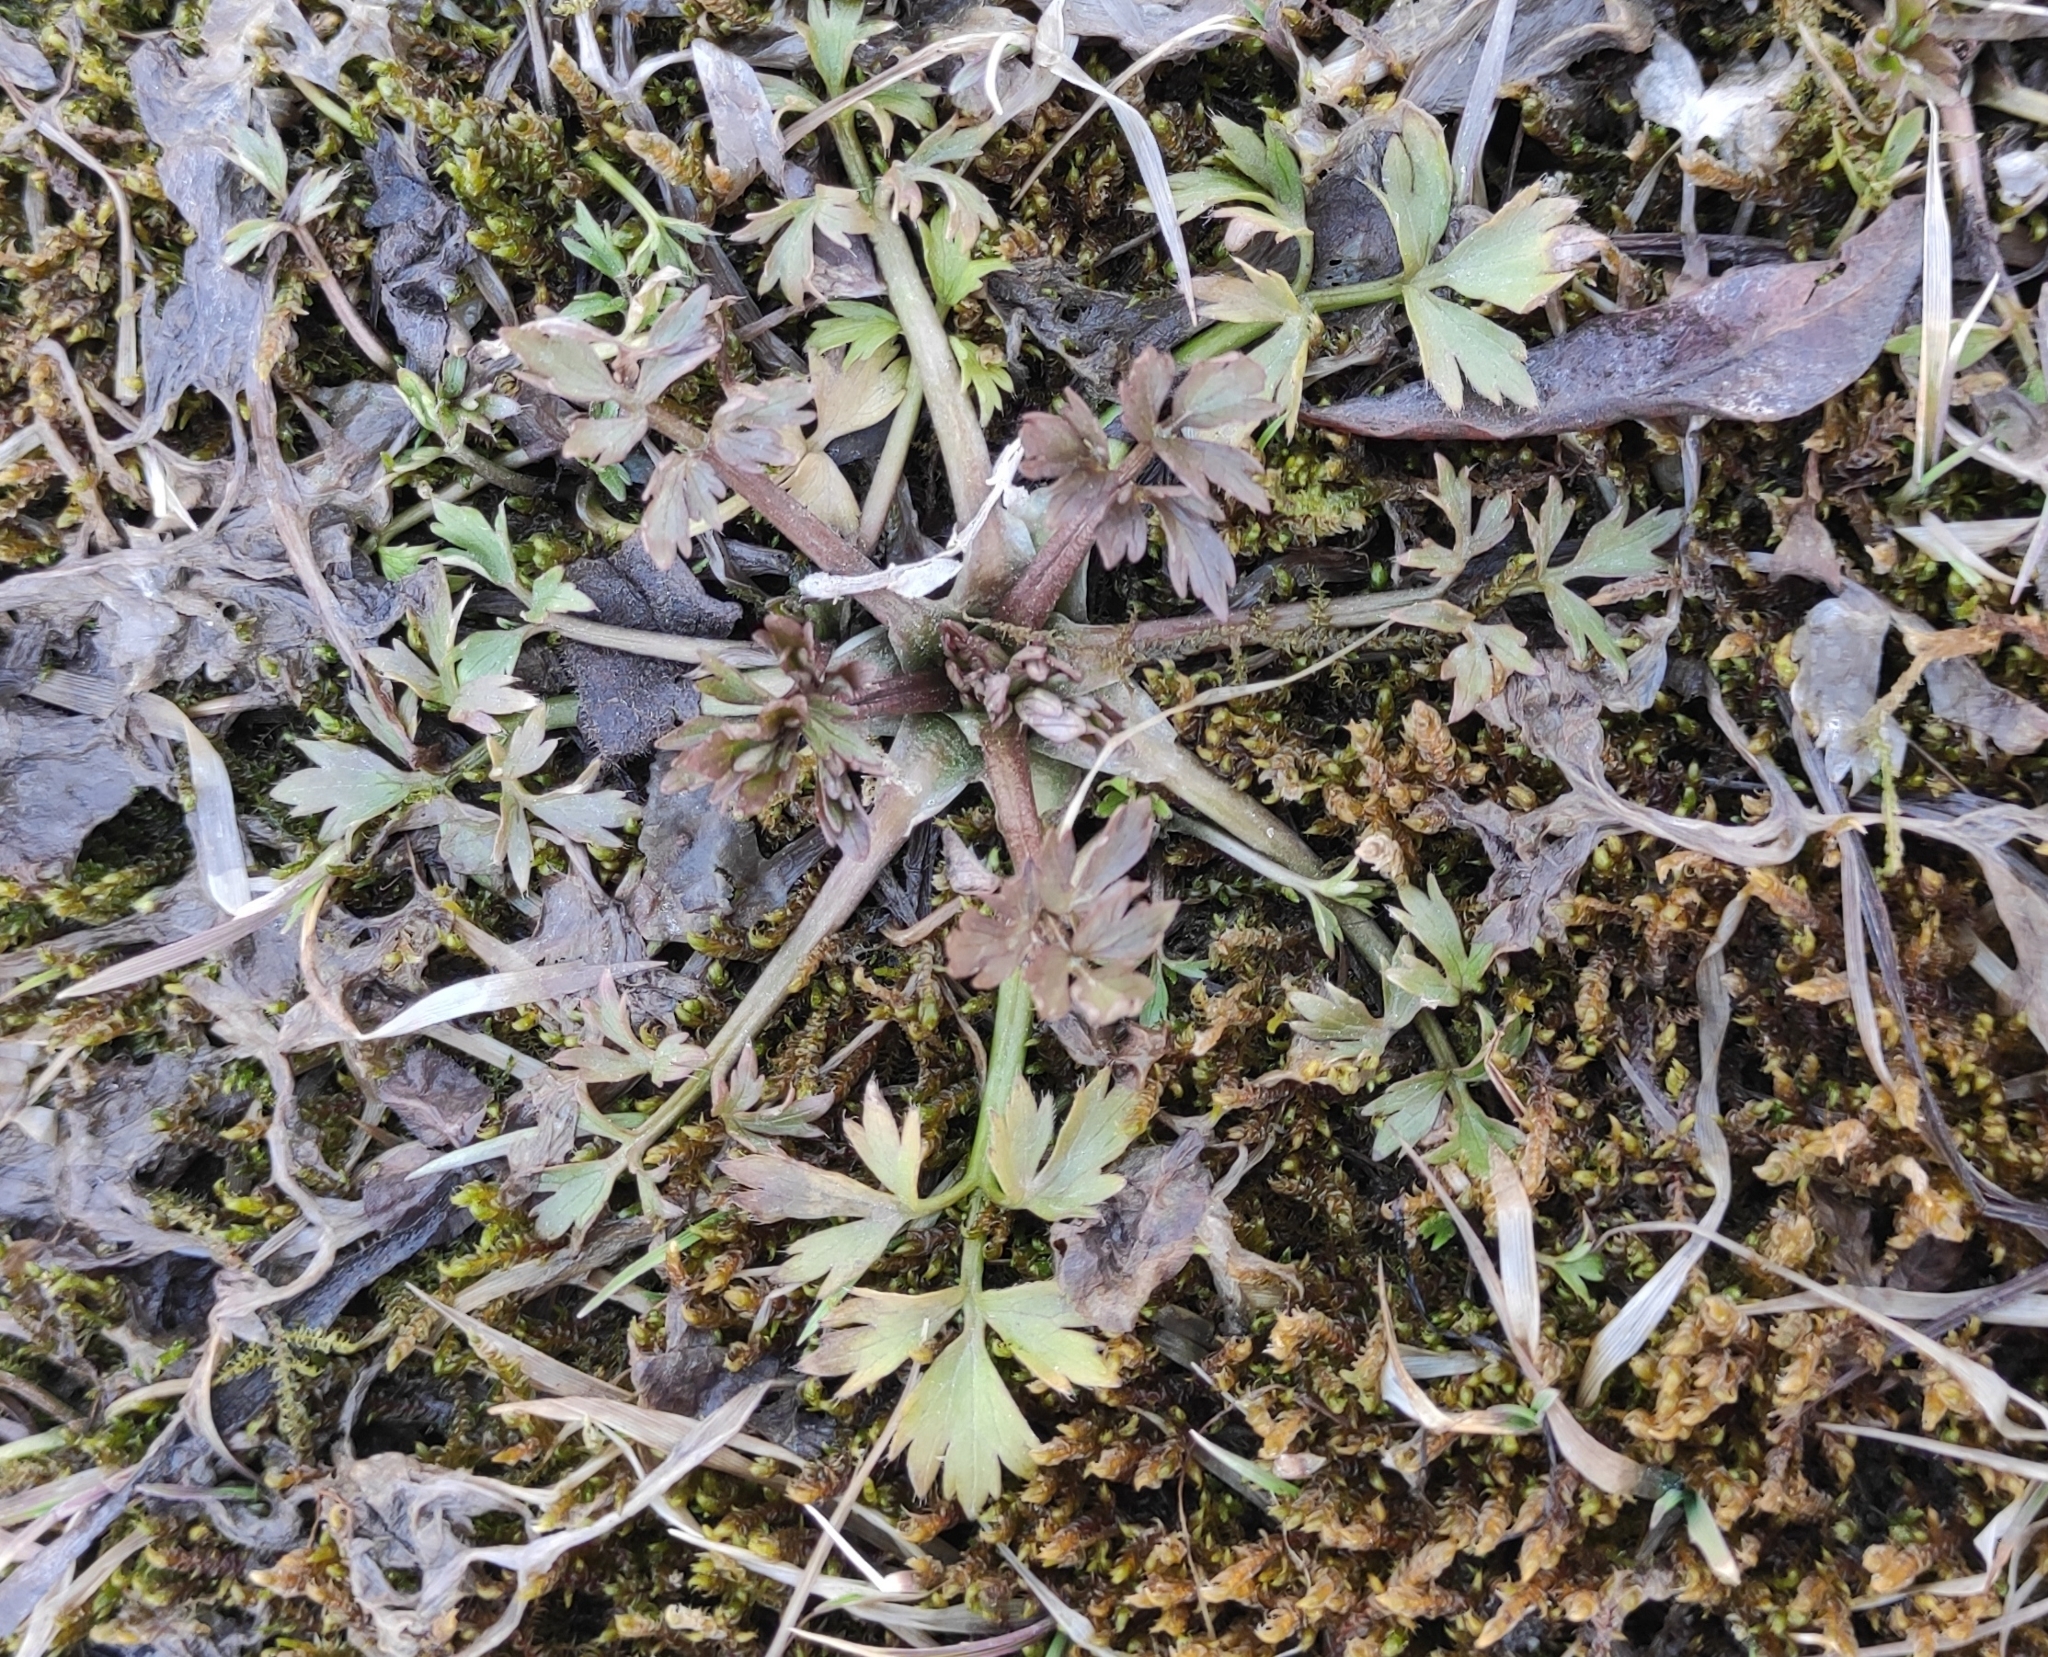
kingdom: Plantae
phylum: Tracheophyta
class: Magnoliopsida
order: Ranunculales
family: Ranunculaceae
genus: Ranunculus
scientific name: Ranunculus repens
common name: Creeping buttercup
